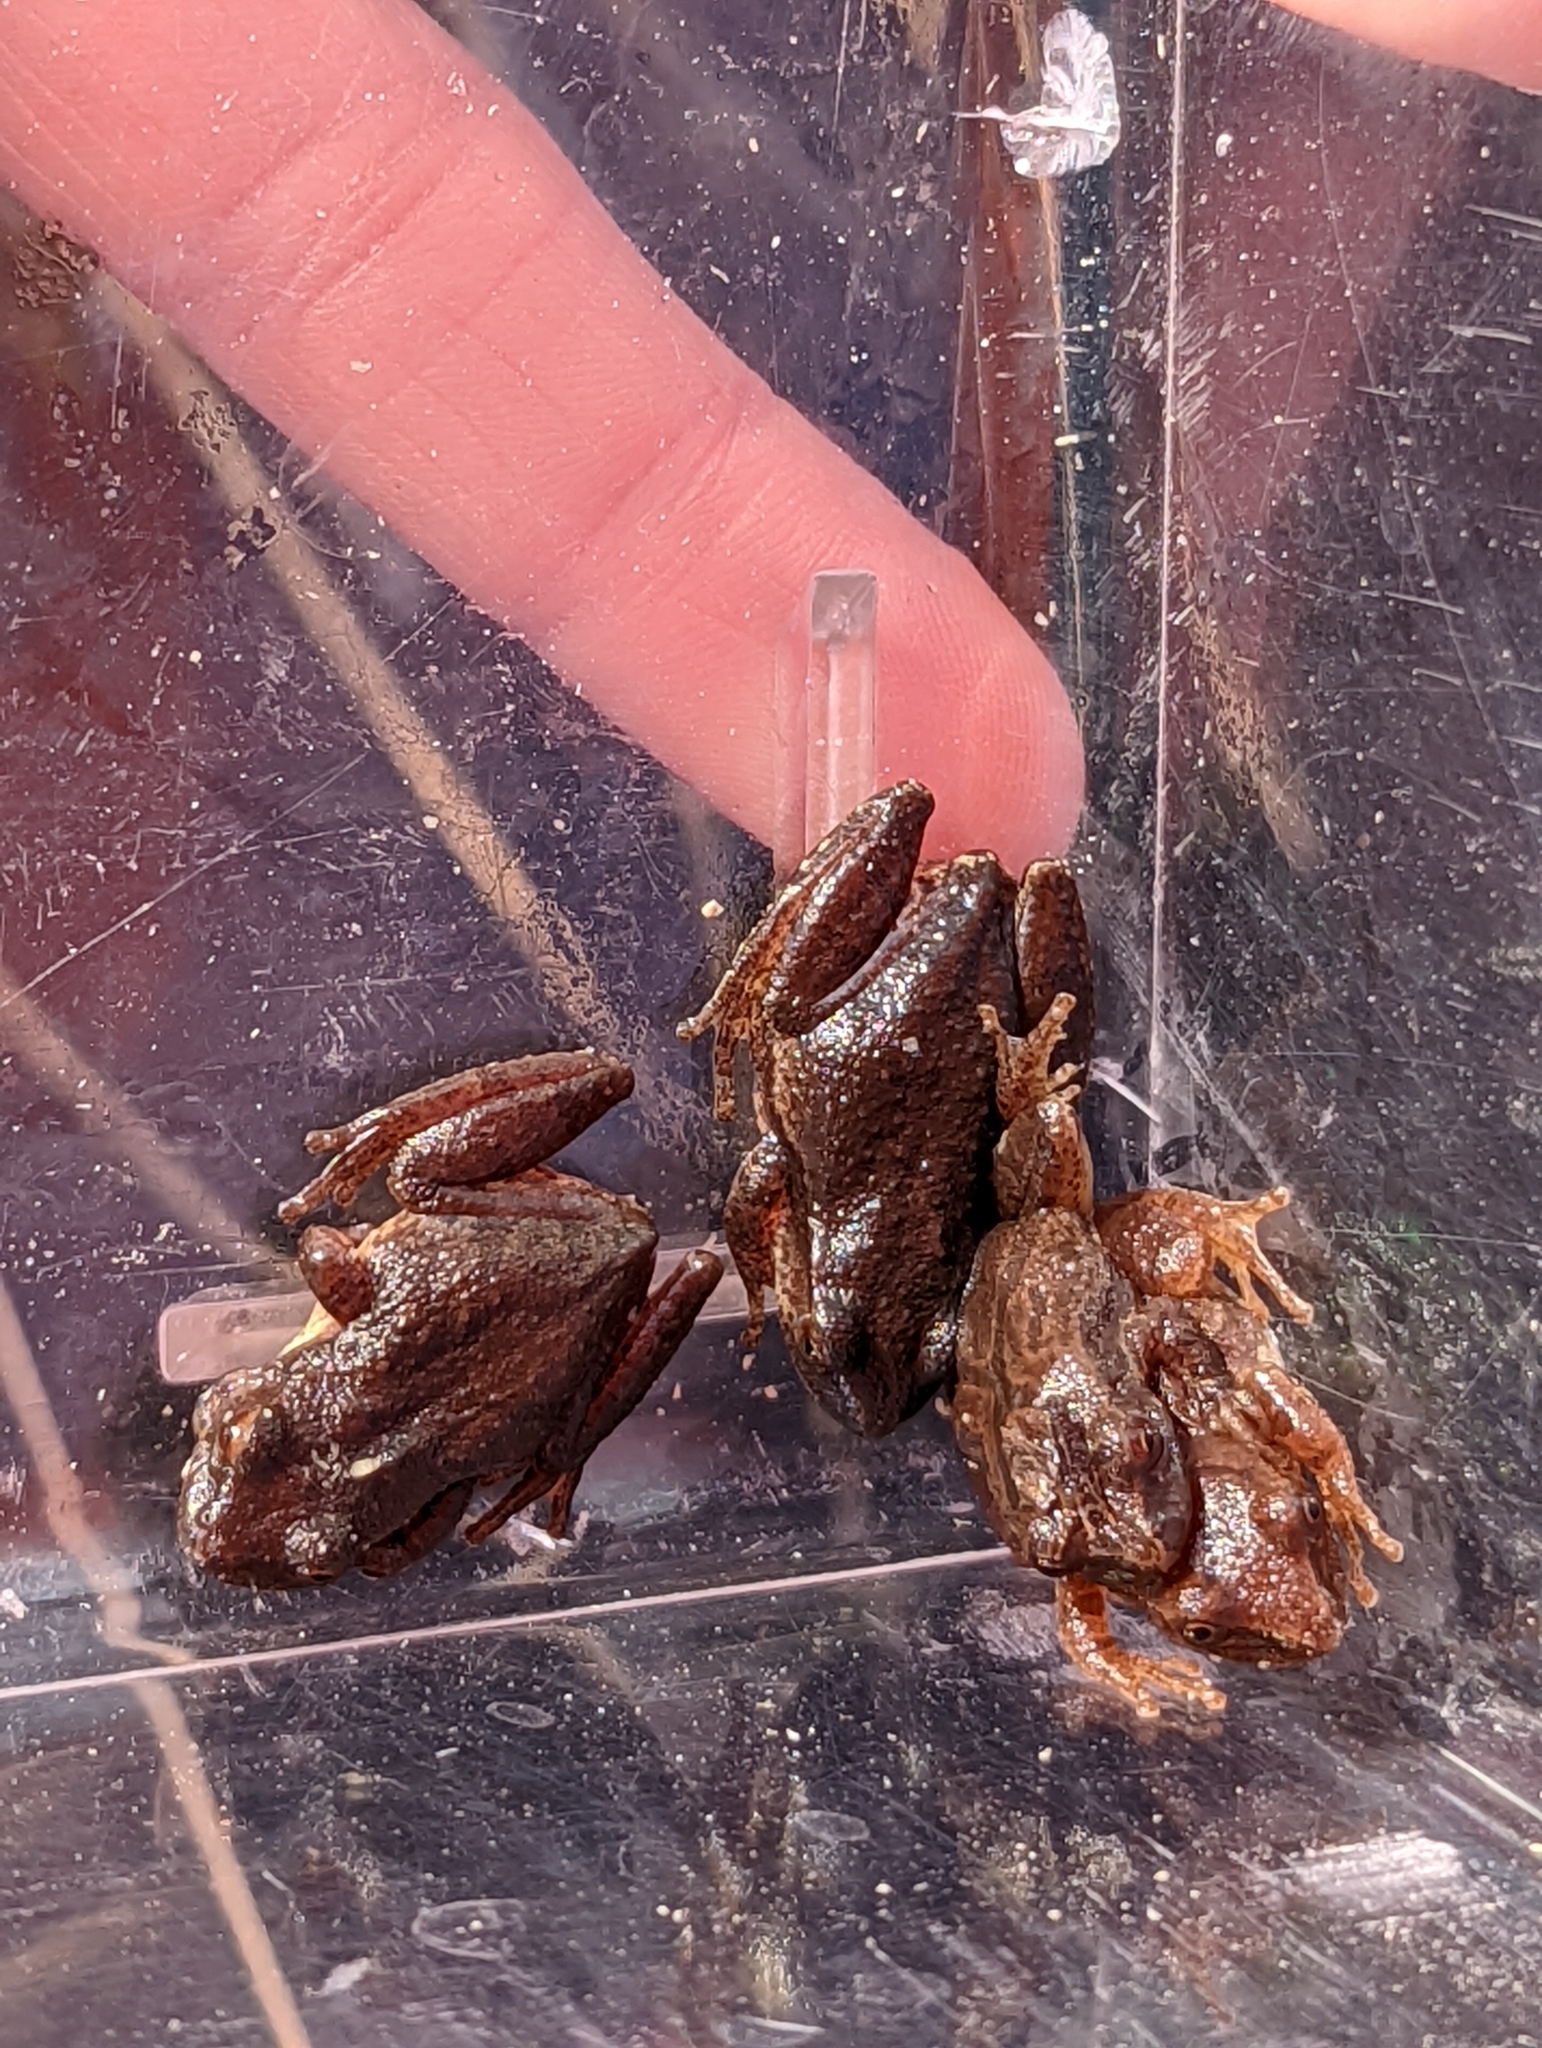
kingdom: Animalia
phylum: Chordata
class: Amphibia
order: Anura
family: Hylidae
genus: Pseudacris
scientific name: Pseudacris crucifer
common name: Spring peeper
